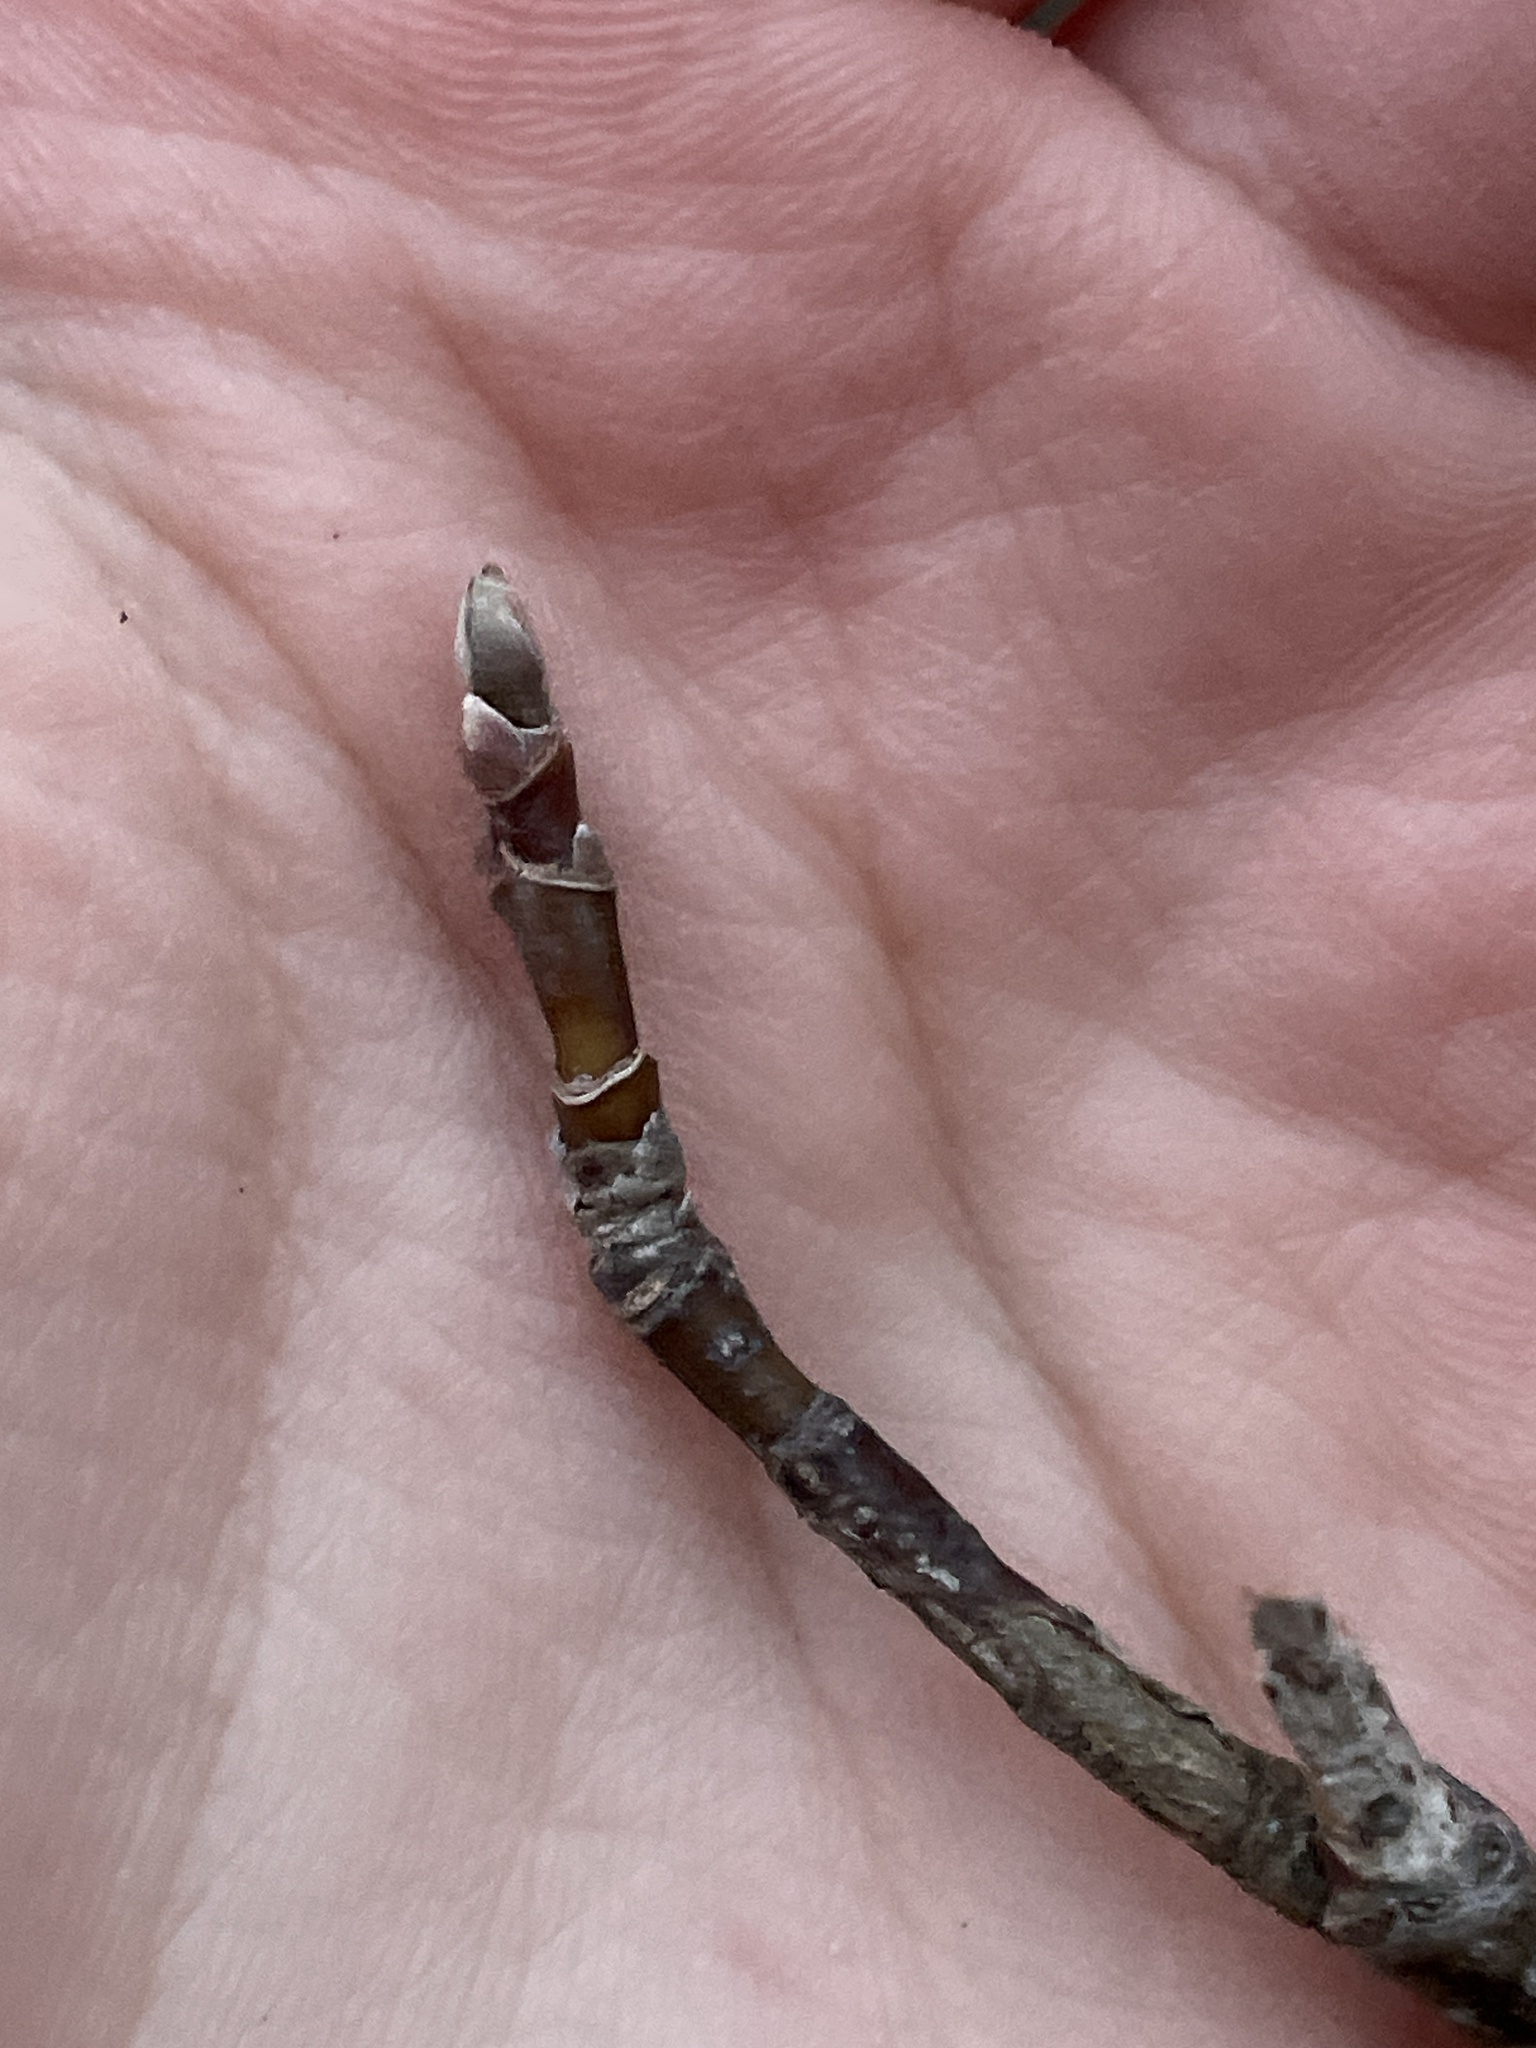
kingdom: Plantae
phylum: Tracheophyta
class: Magnoliopsida
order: Sapindales
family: Sapindaceae
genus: Acer
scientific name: Acer negundo
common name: Ashleaf maple
